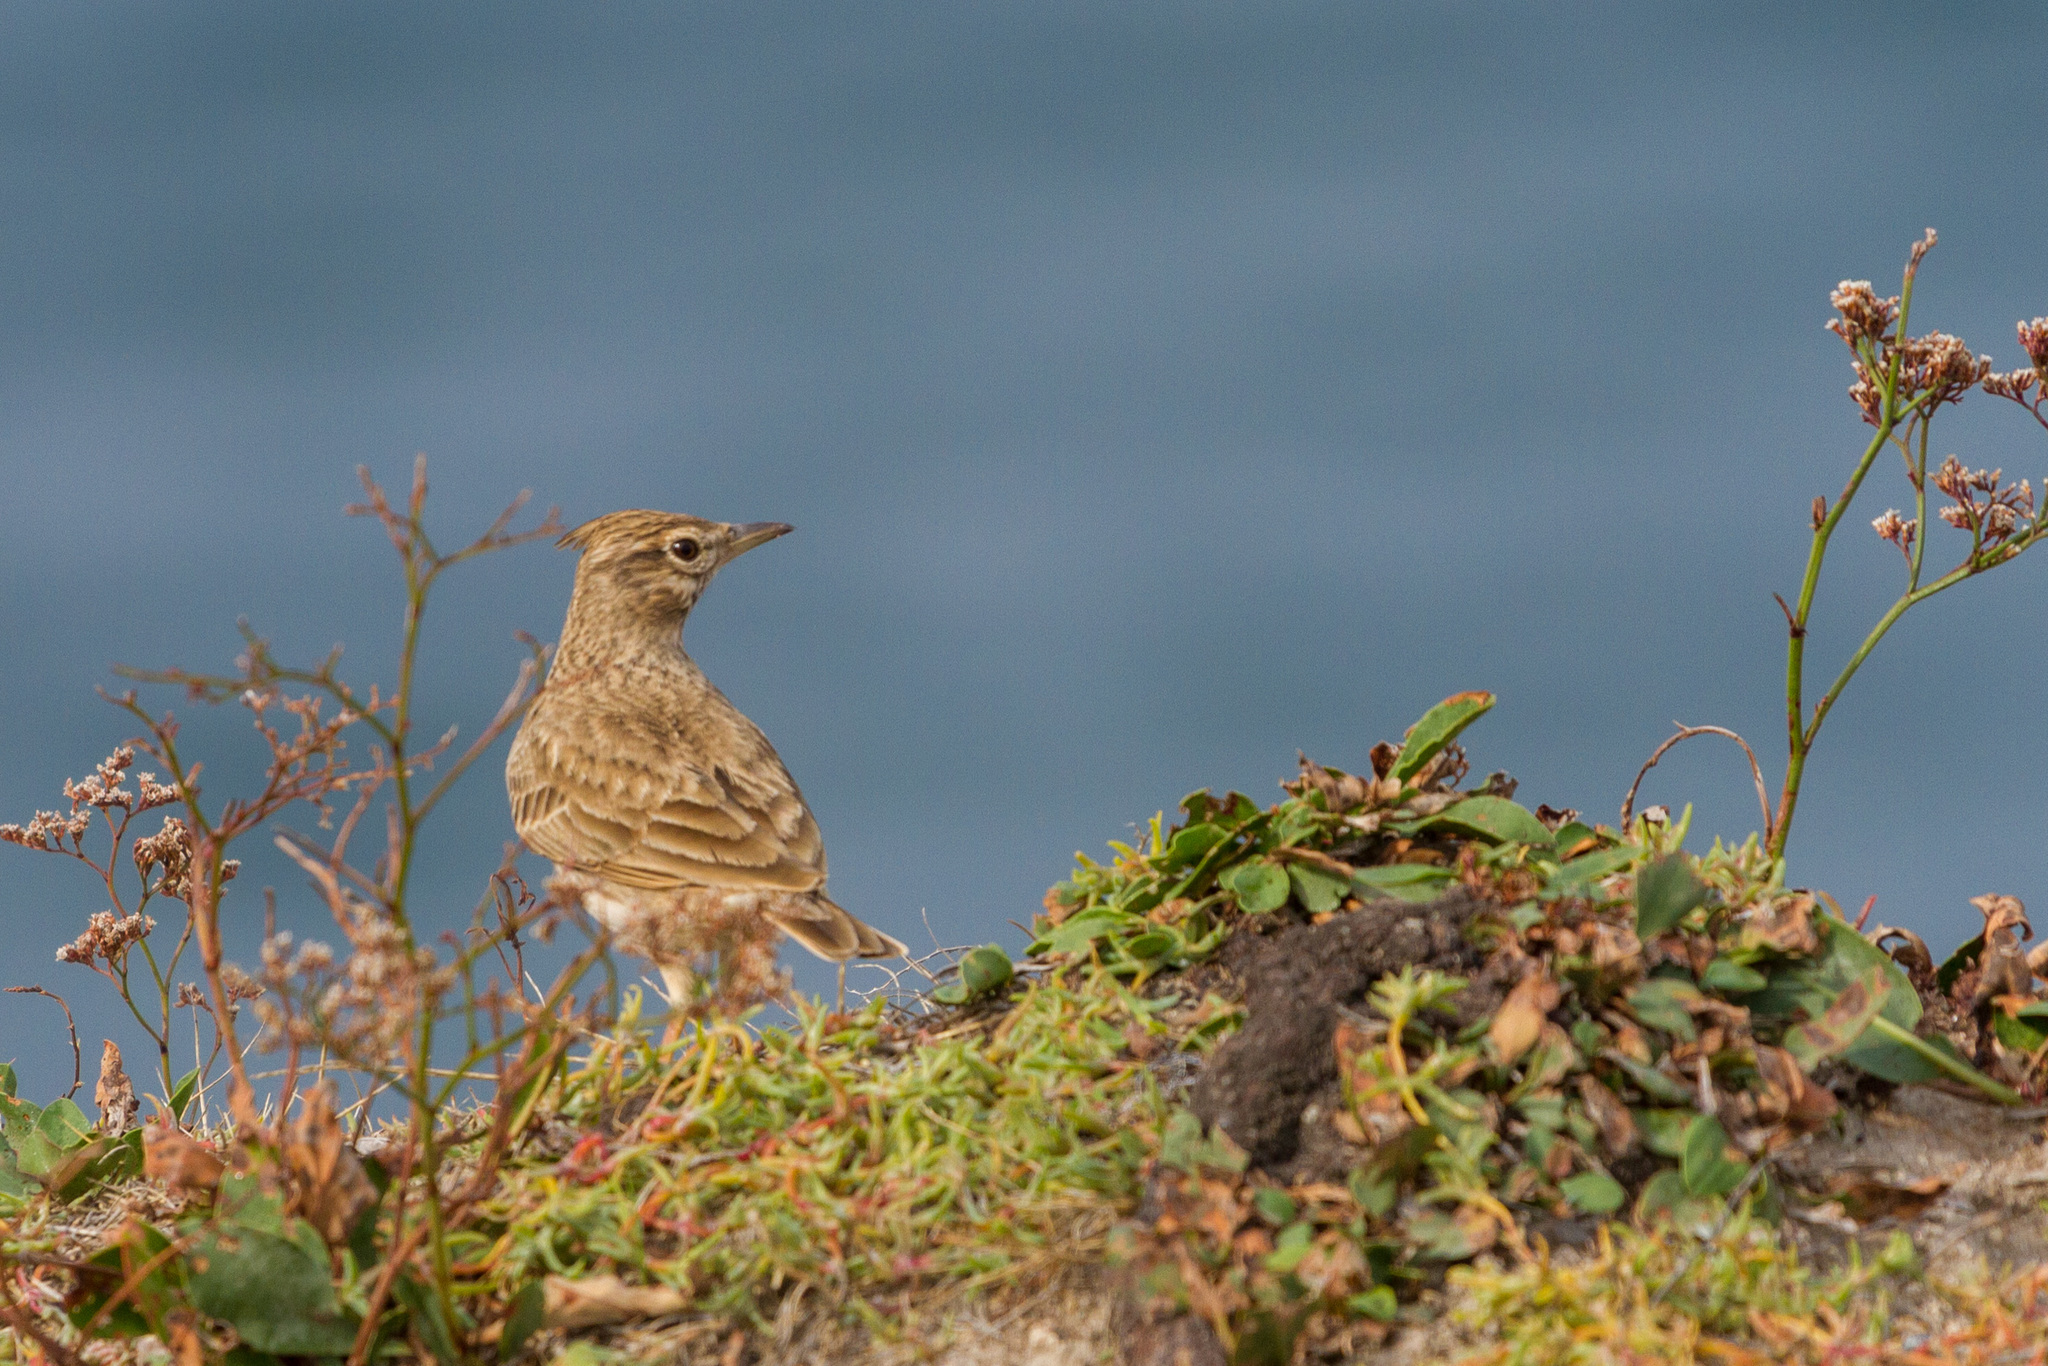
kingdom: Animalia
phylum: Chordata
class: Aves
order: Passeriformes
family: Alaudidae
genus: Galerida
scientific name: Galerida cristata
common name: Crested lark
